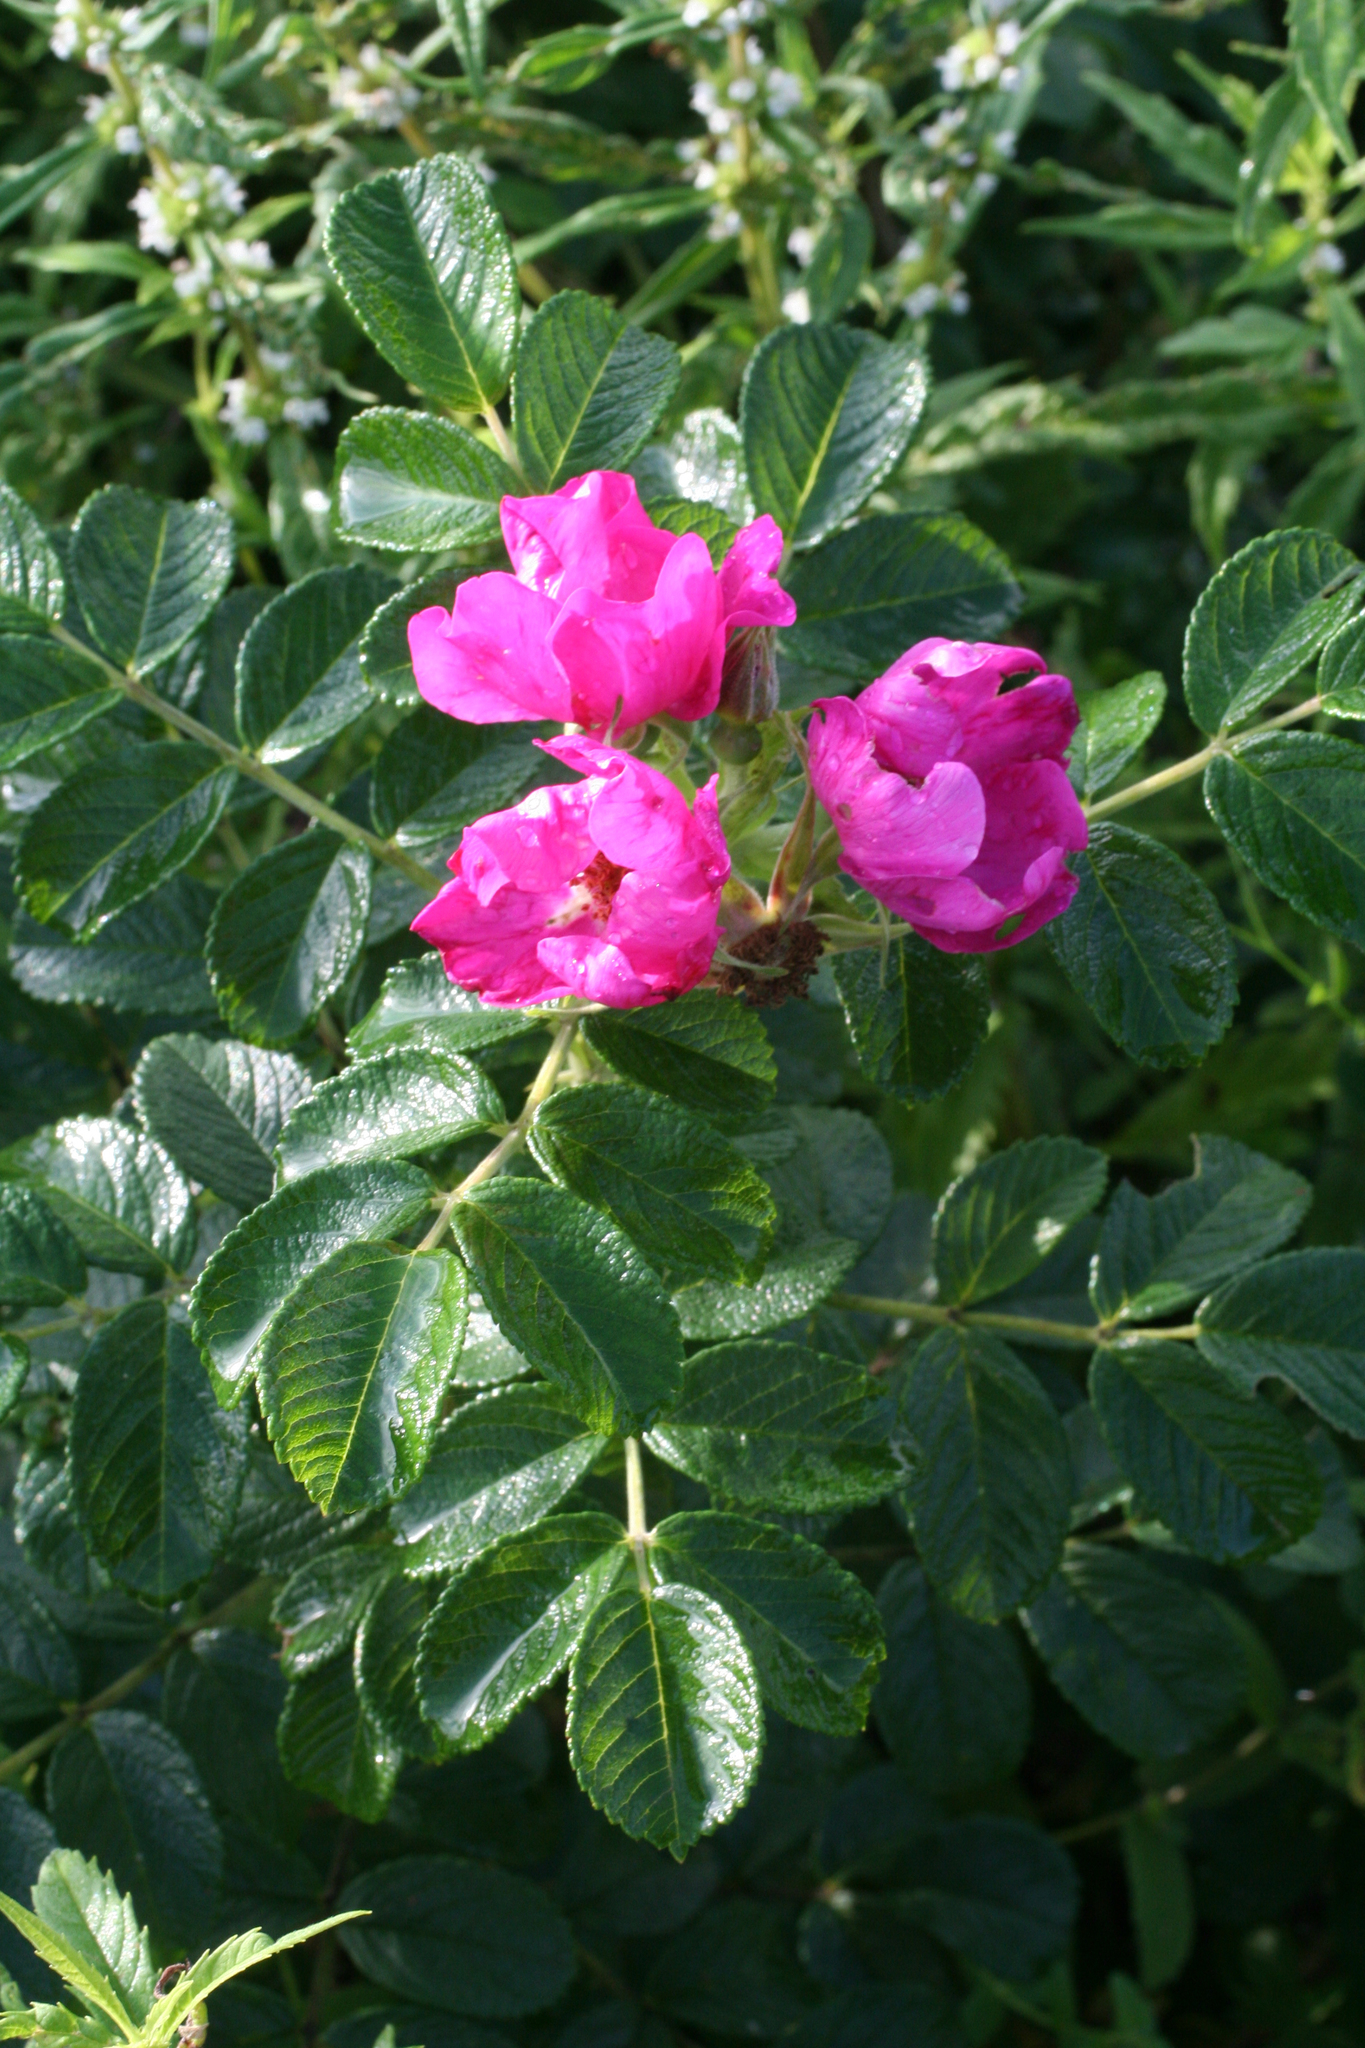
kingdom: Plantae
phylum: Tracheophyta
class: Magnoliopsida
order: Rosales
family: Rosaceae
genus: Rosa
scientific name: Rosa rugosa
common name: Japanese rose
